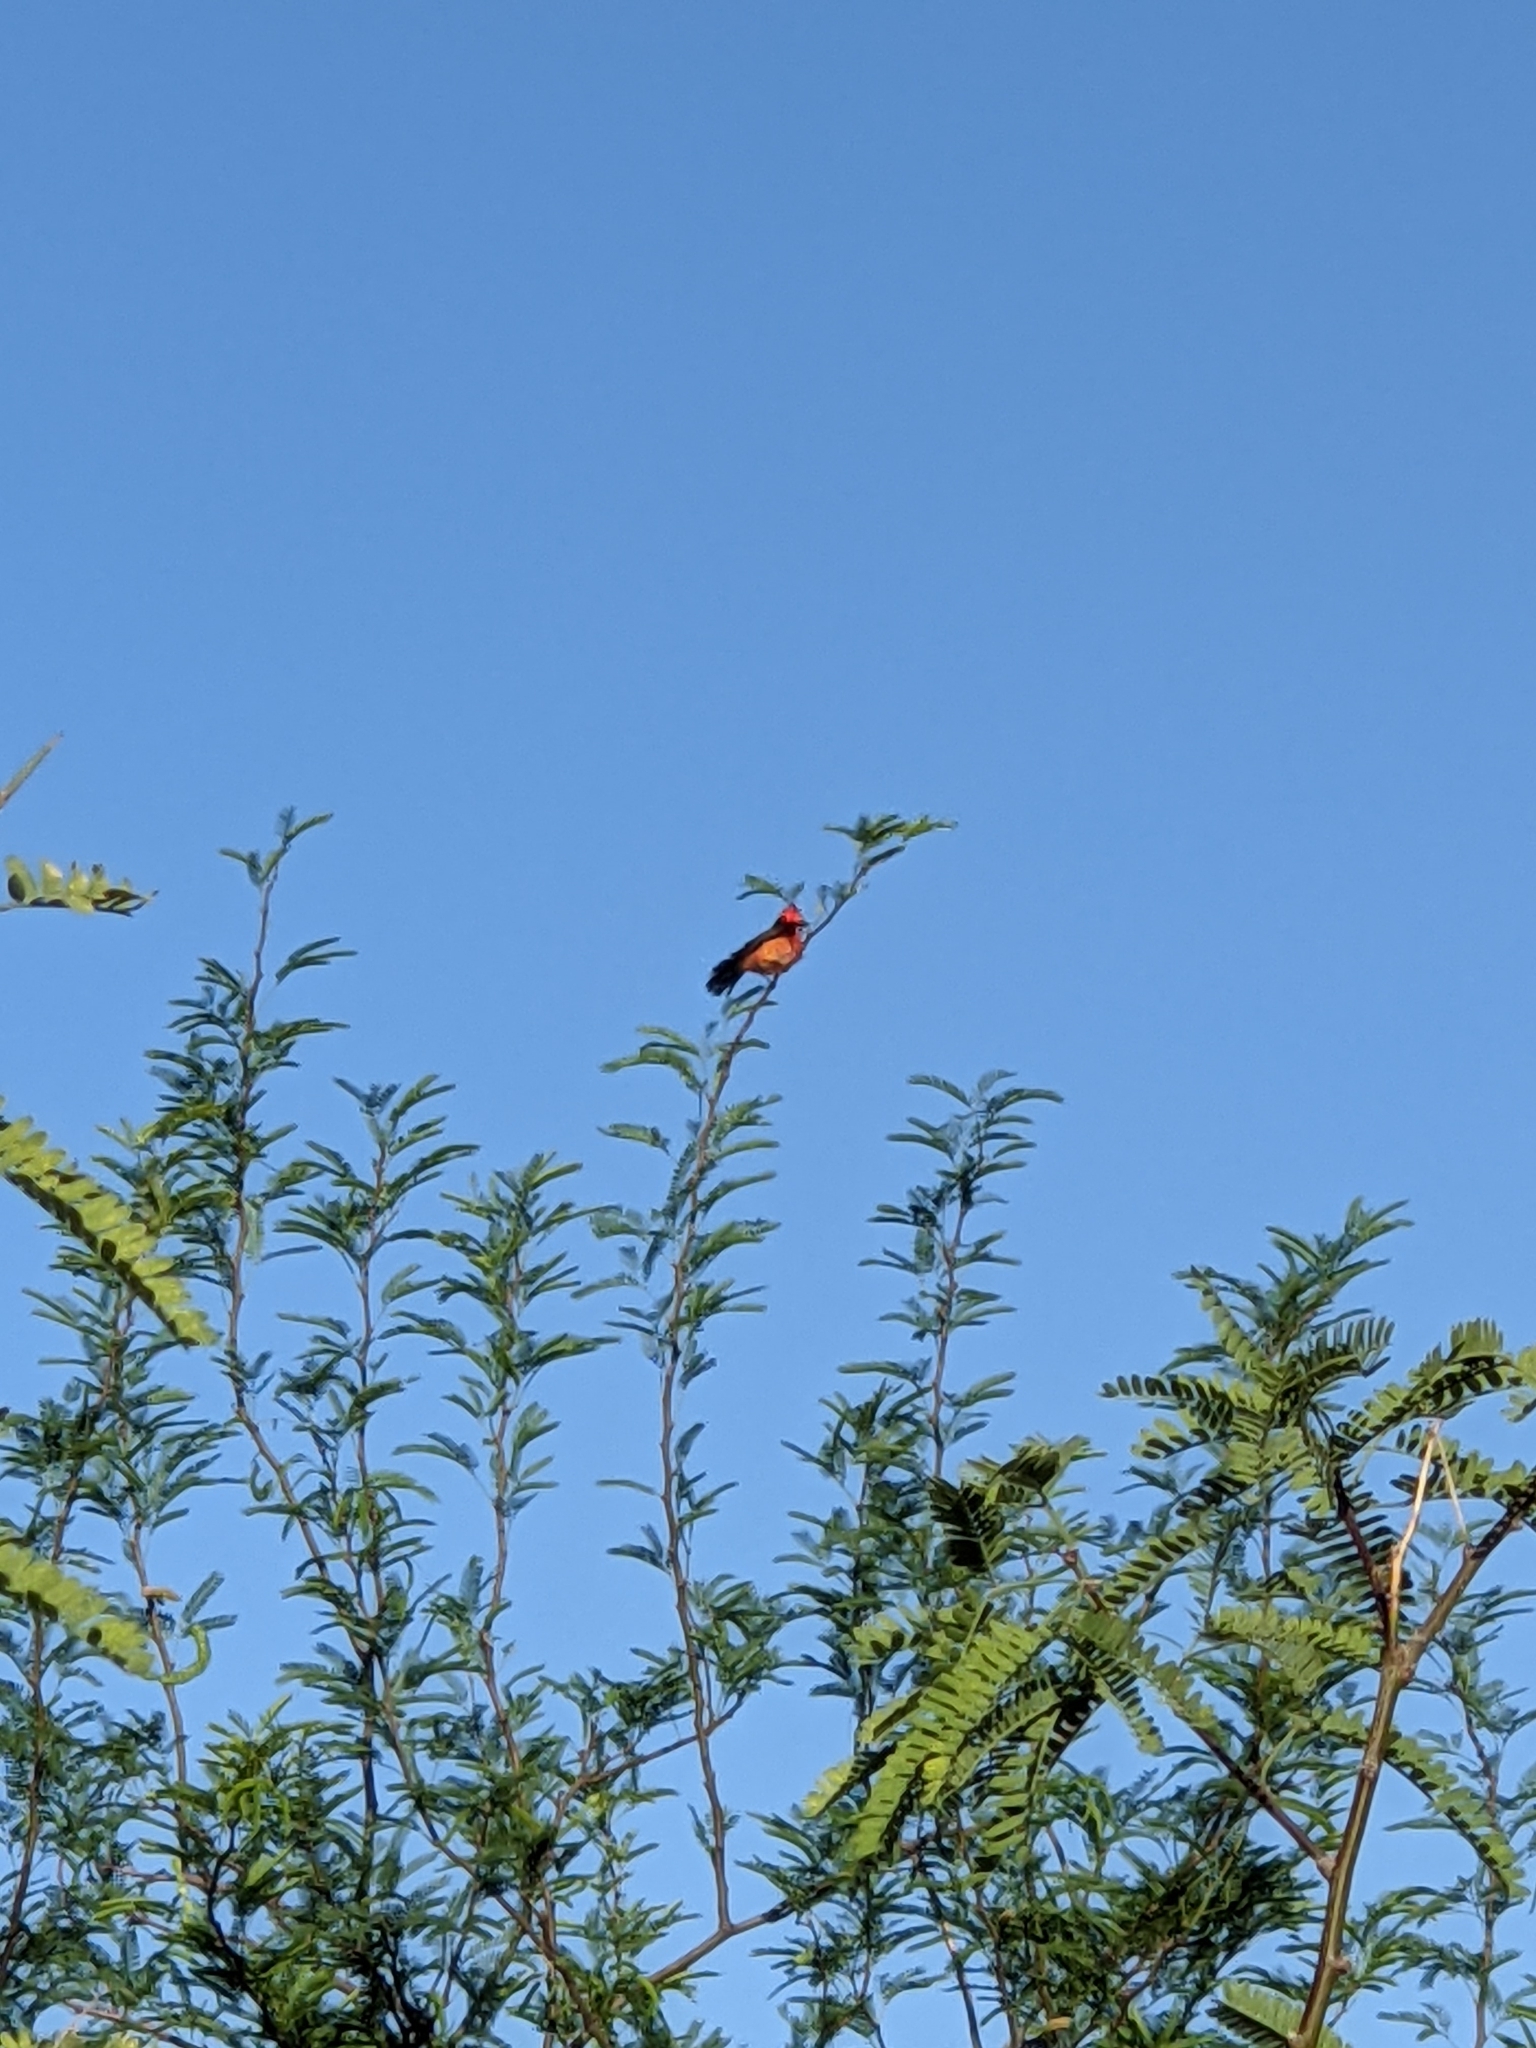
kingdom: Animalia
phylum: Chordata
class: Aves
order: Passeriformes
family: Tyrannidae
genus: Pyrocephalus
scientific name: Pyrocephalus rubinus
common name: Vermilion flycatcher
